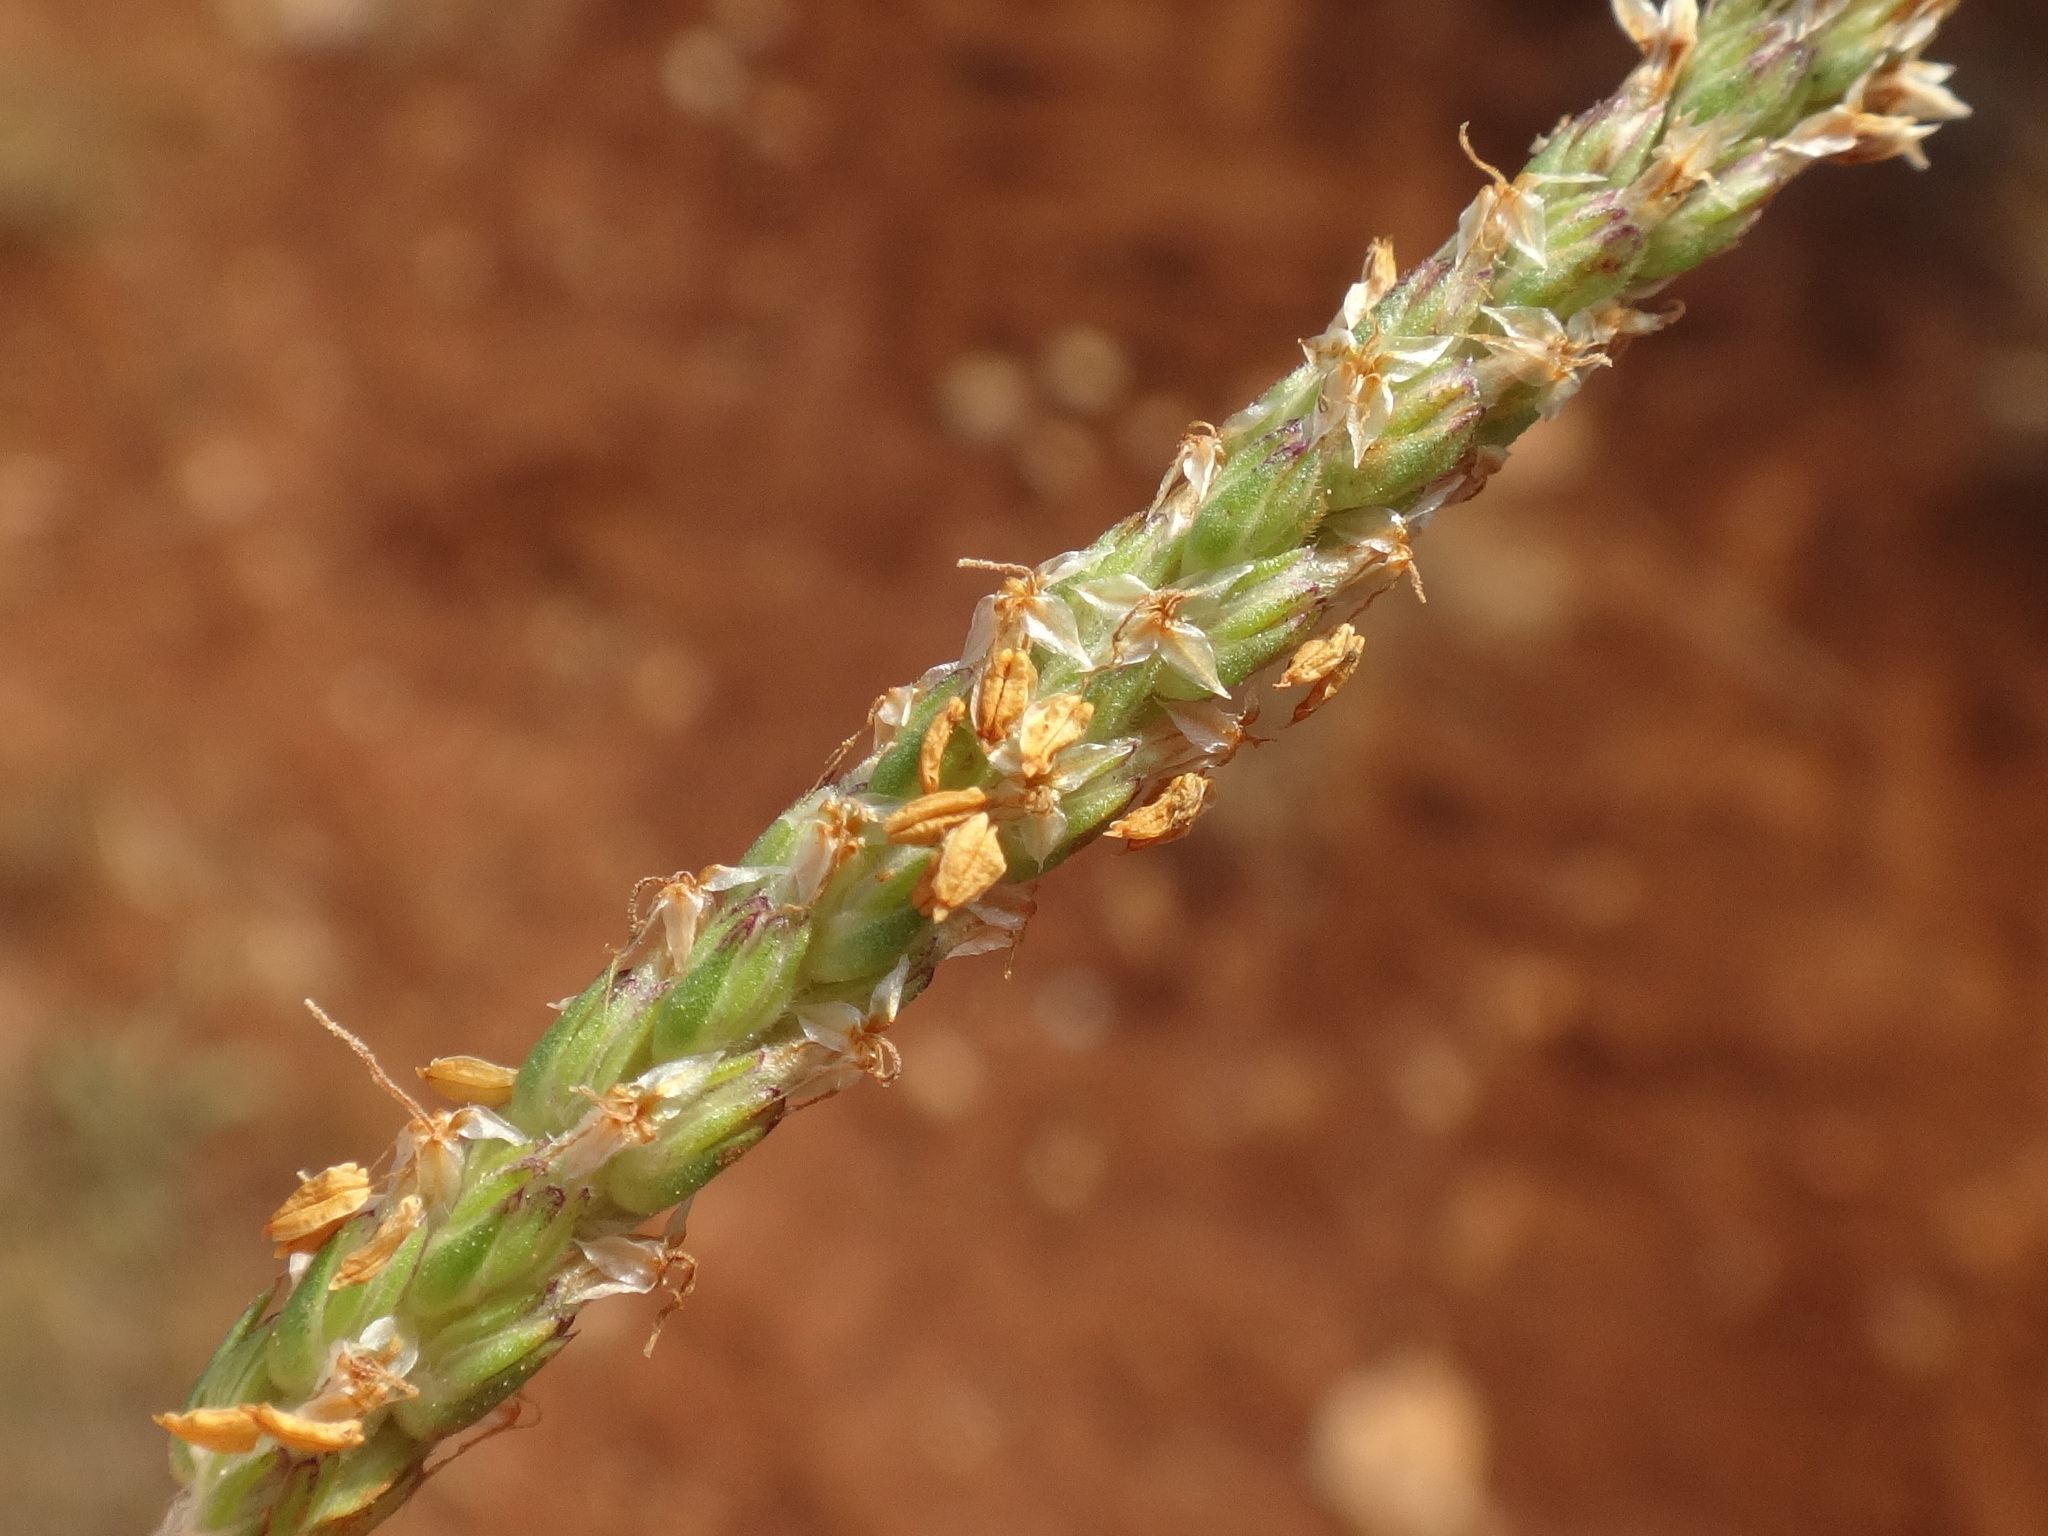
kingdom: Plantae
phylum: Tracheophyta
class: Magnoliopsida
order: Lamiales
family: Plantaginaceae
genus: Plantago
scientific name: Plantago subulata
